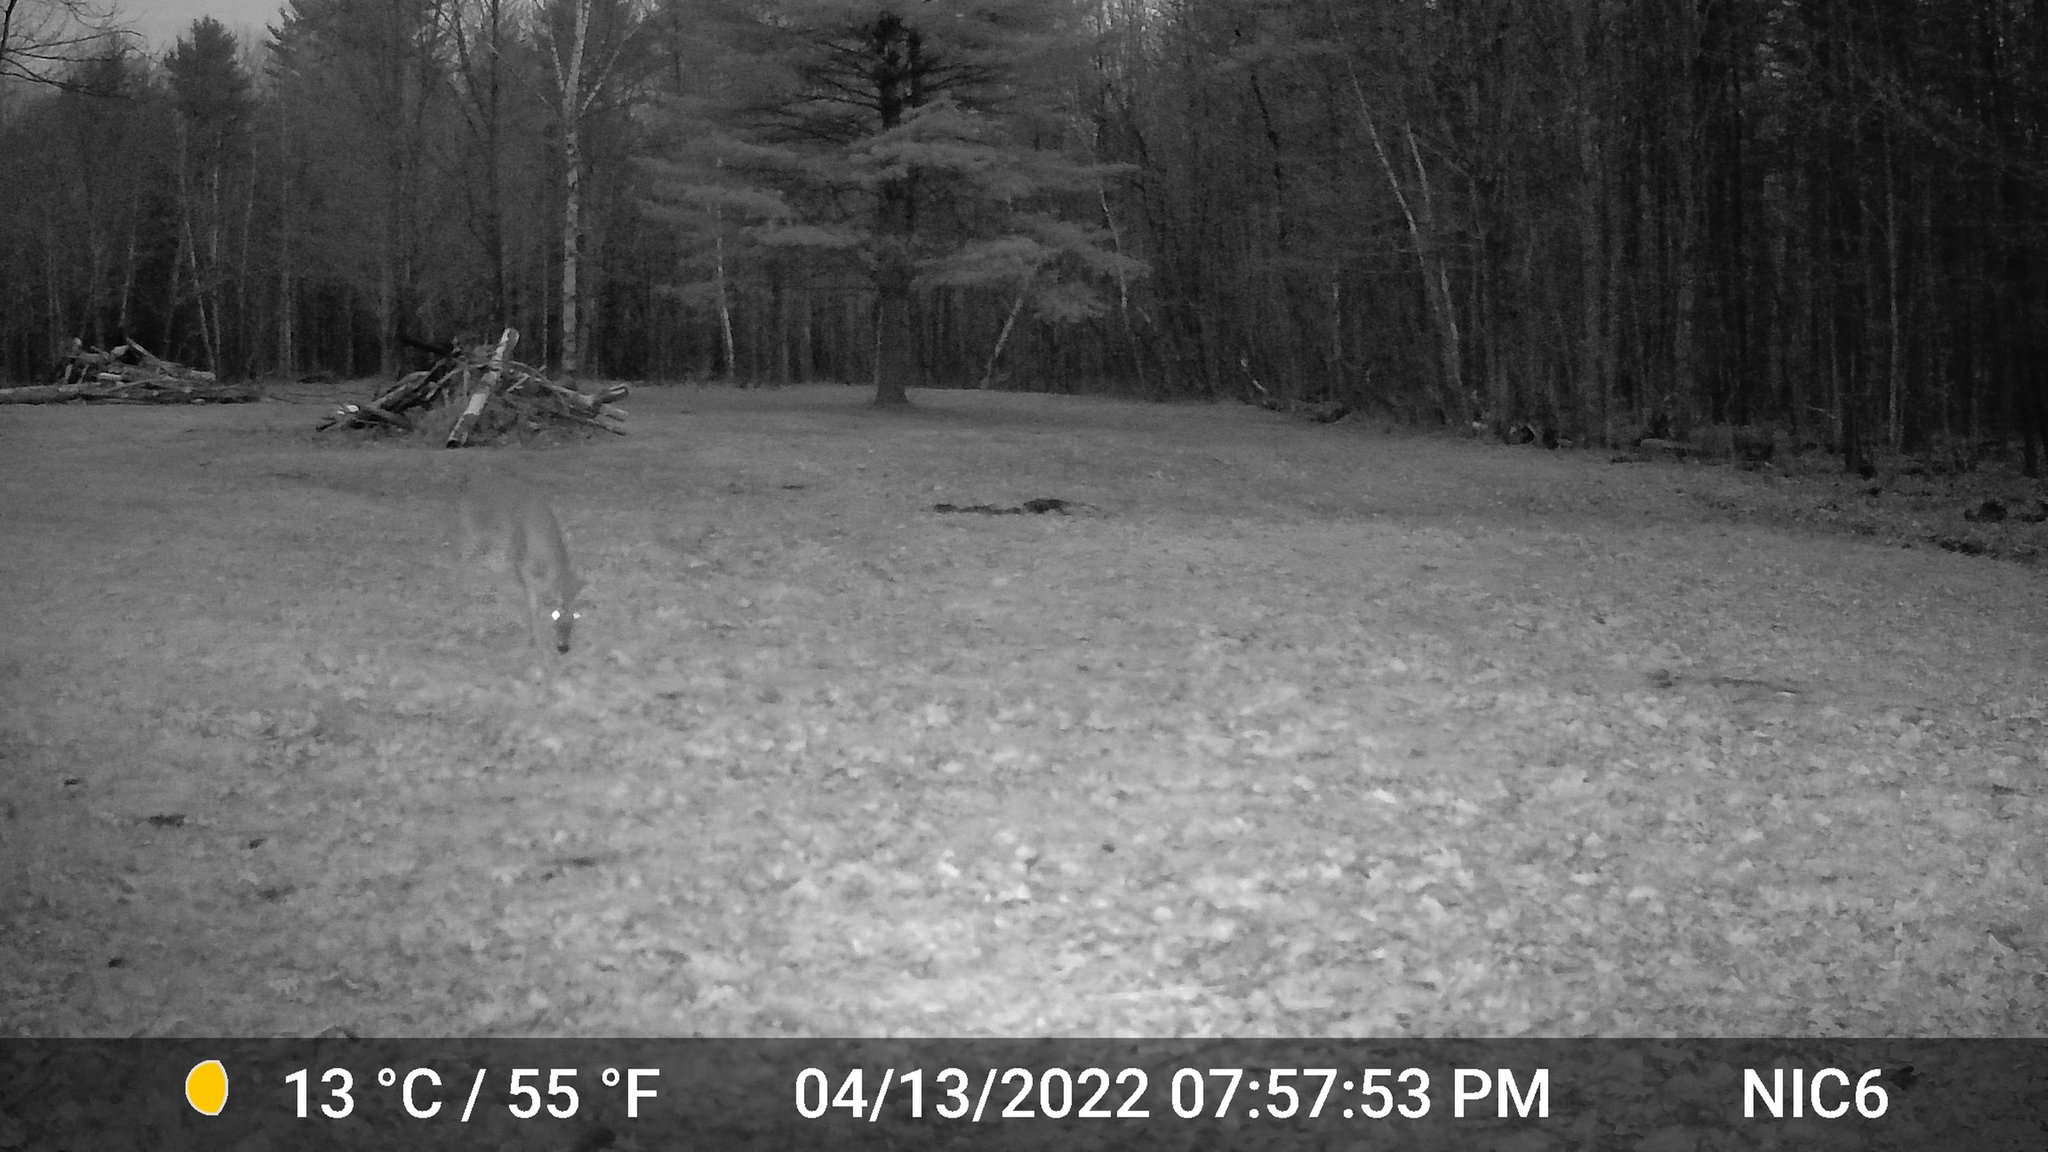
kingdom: Animalia
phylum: Chordata
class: Mammalia
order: Artiodactyla
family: Cervidae
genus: Odocoileus
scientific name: Odocoileus virginianus
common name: White-tailed deer
